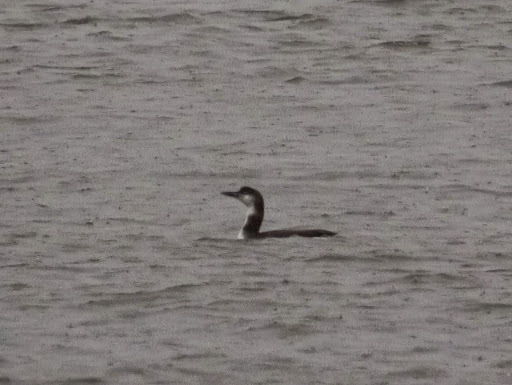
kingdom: Animalia
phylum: Chordata
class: Aves
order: Gaviiformes
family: Gaviidae
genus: Gavia
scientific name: Gavia immer
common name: Common loon
